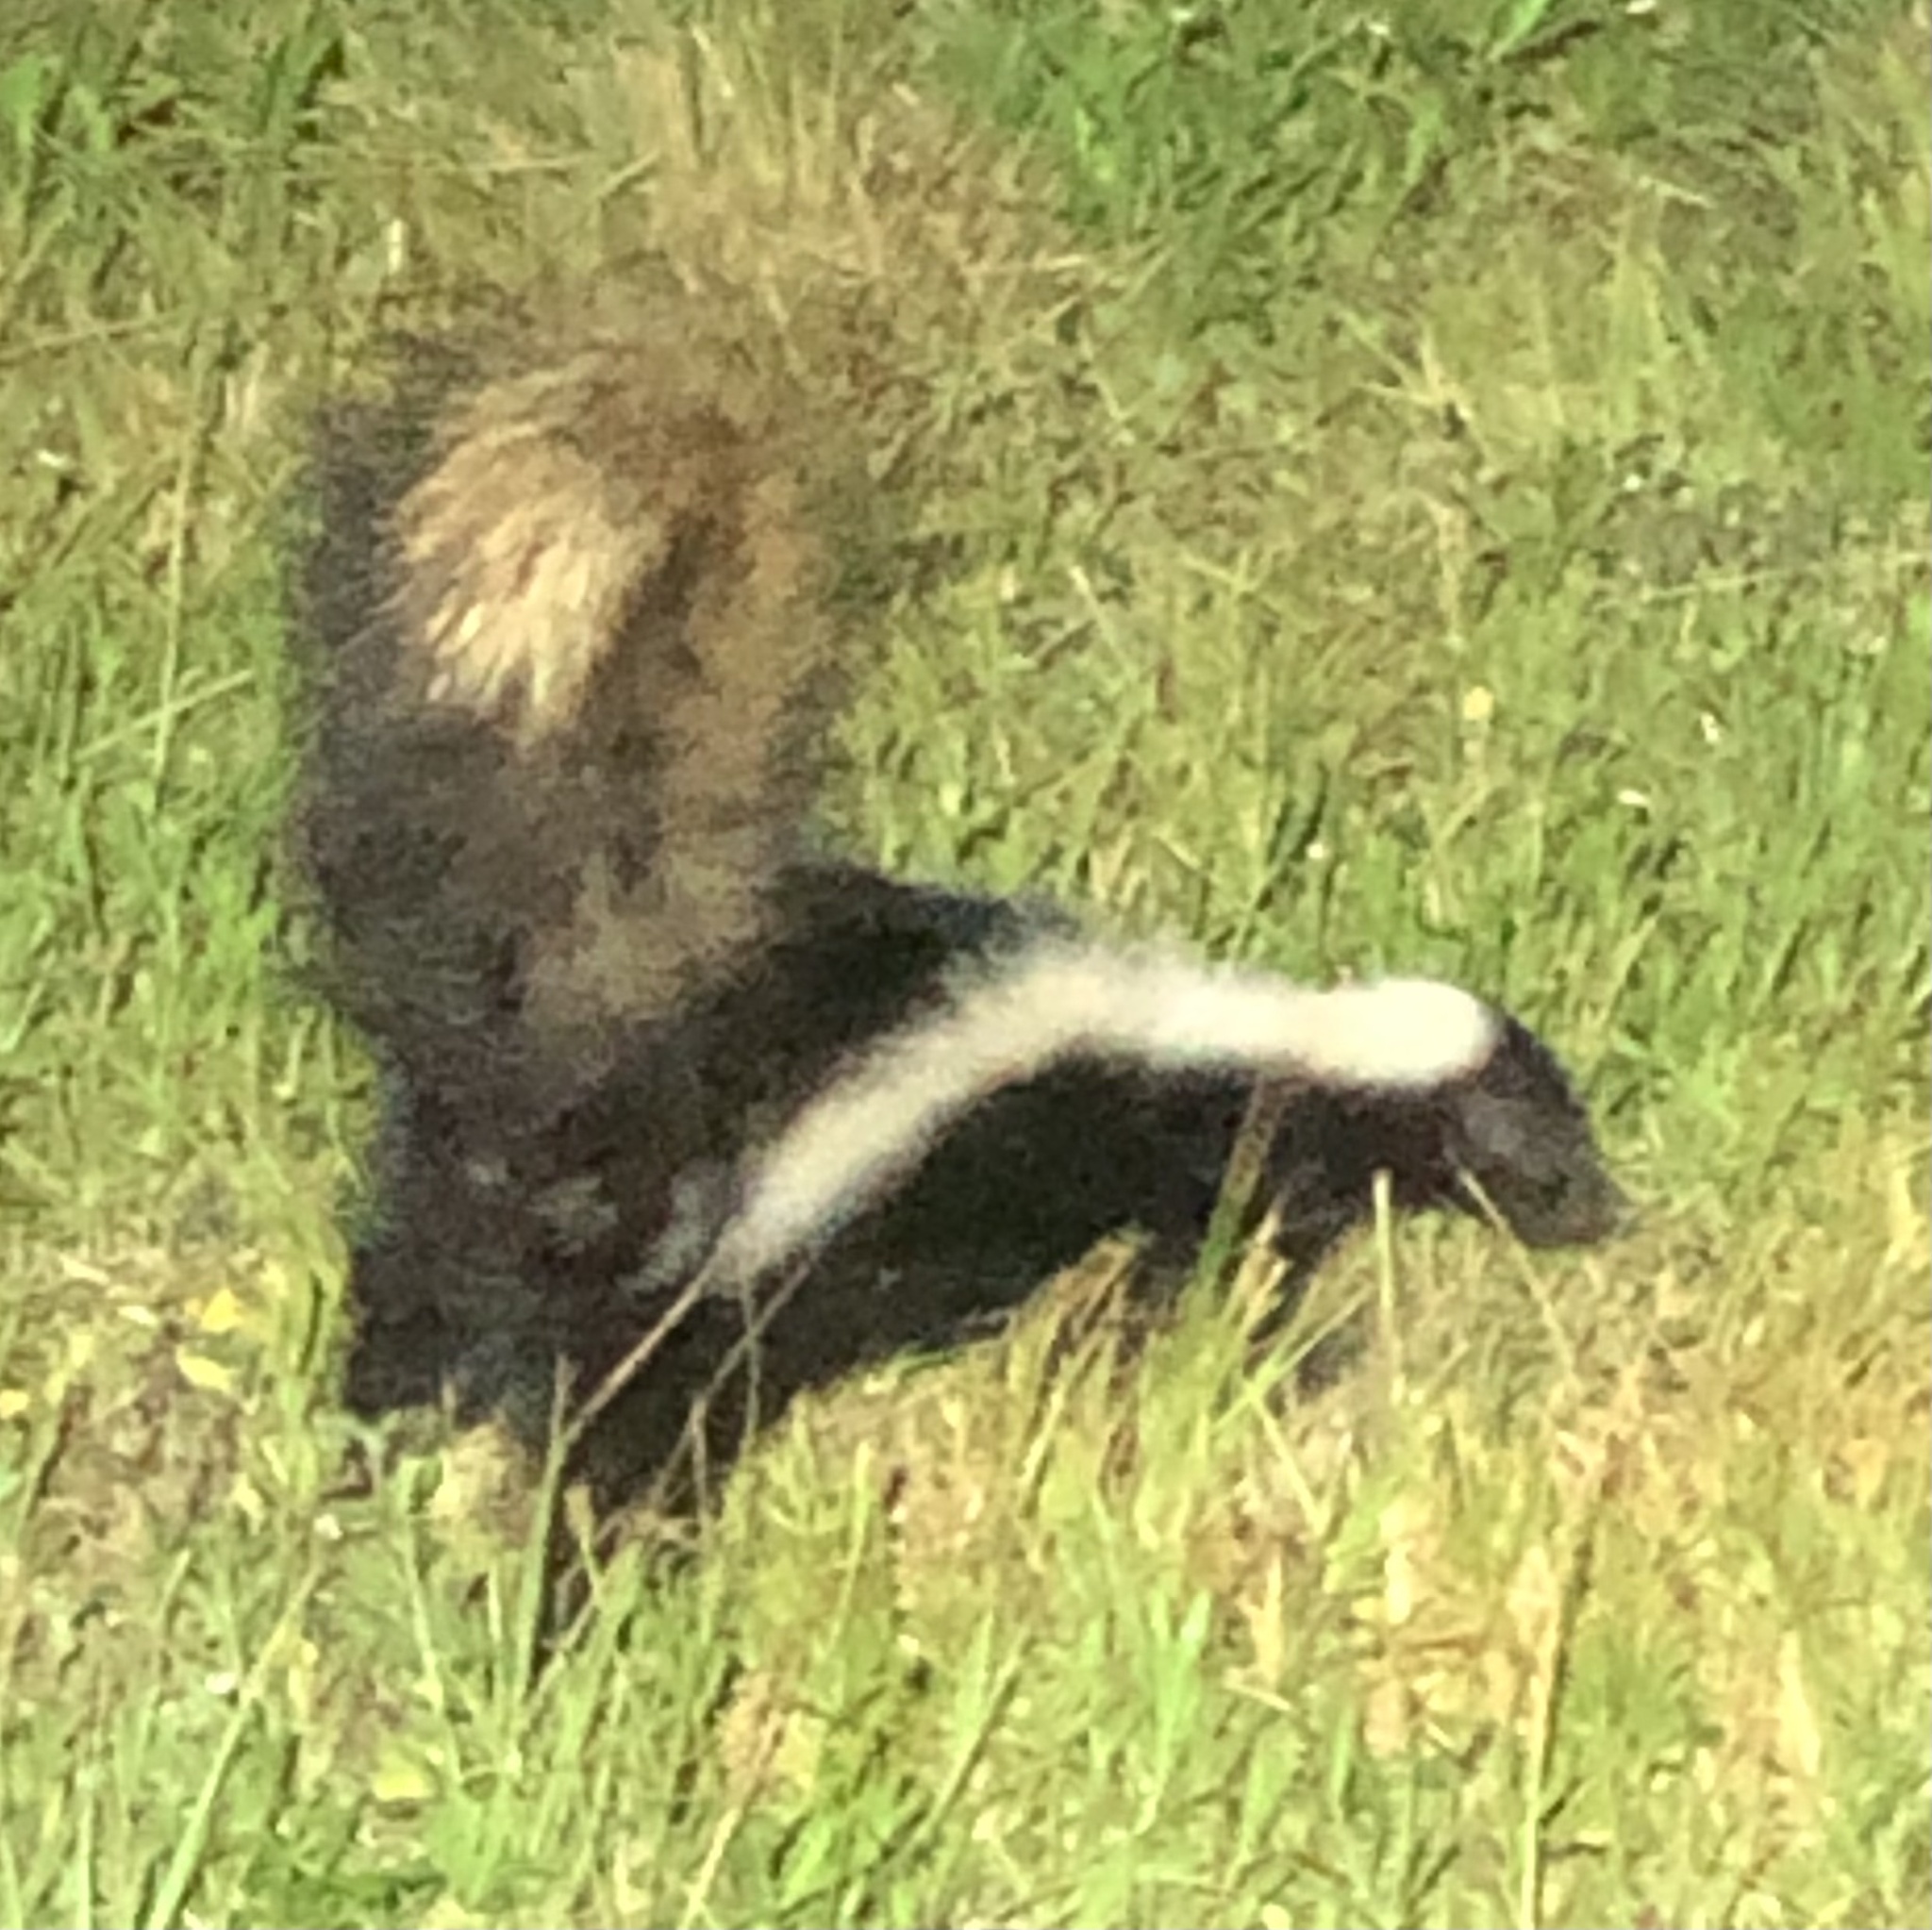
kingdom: Animalia
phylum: Chordata
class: Mammalia
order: Carnivora
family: Mephitidae
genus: Mephitis
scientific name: Mephitis mephitis
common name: Striped skunk
